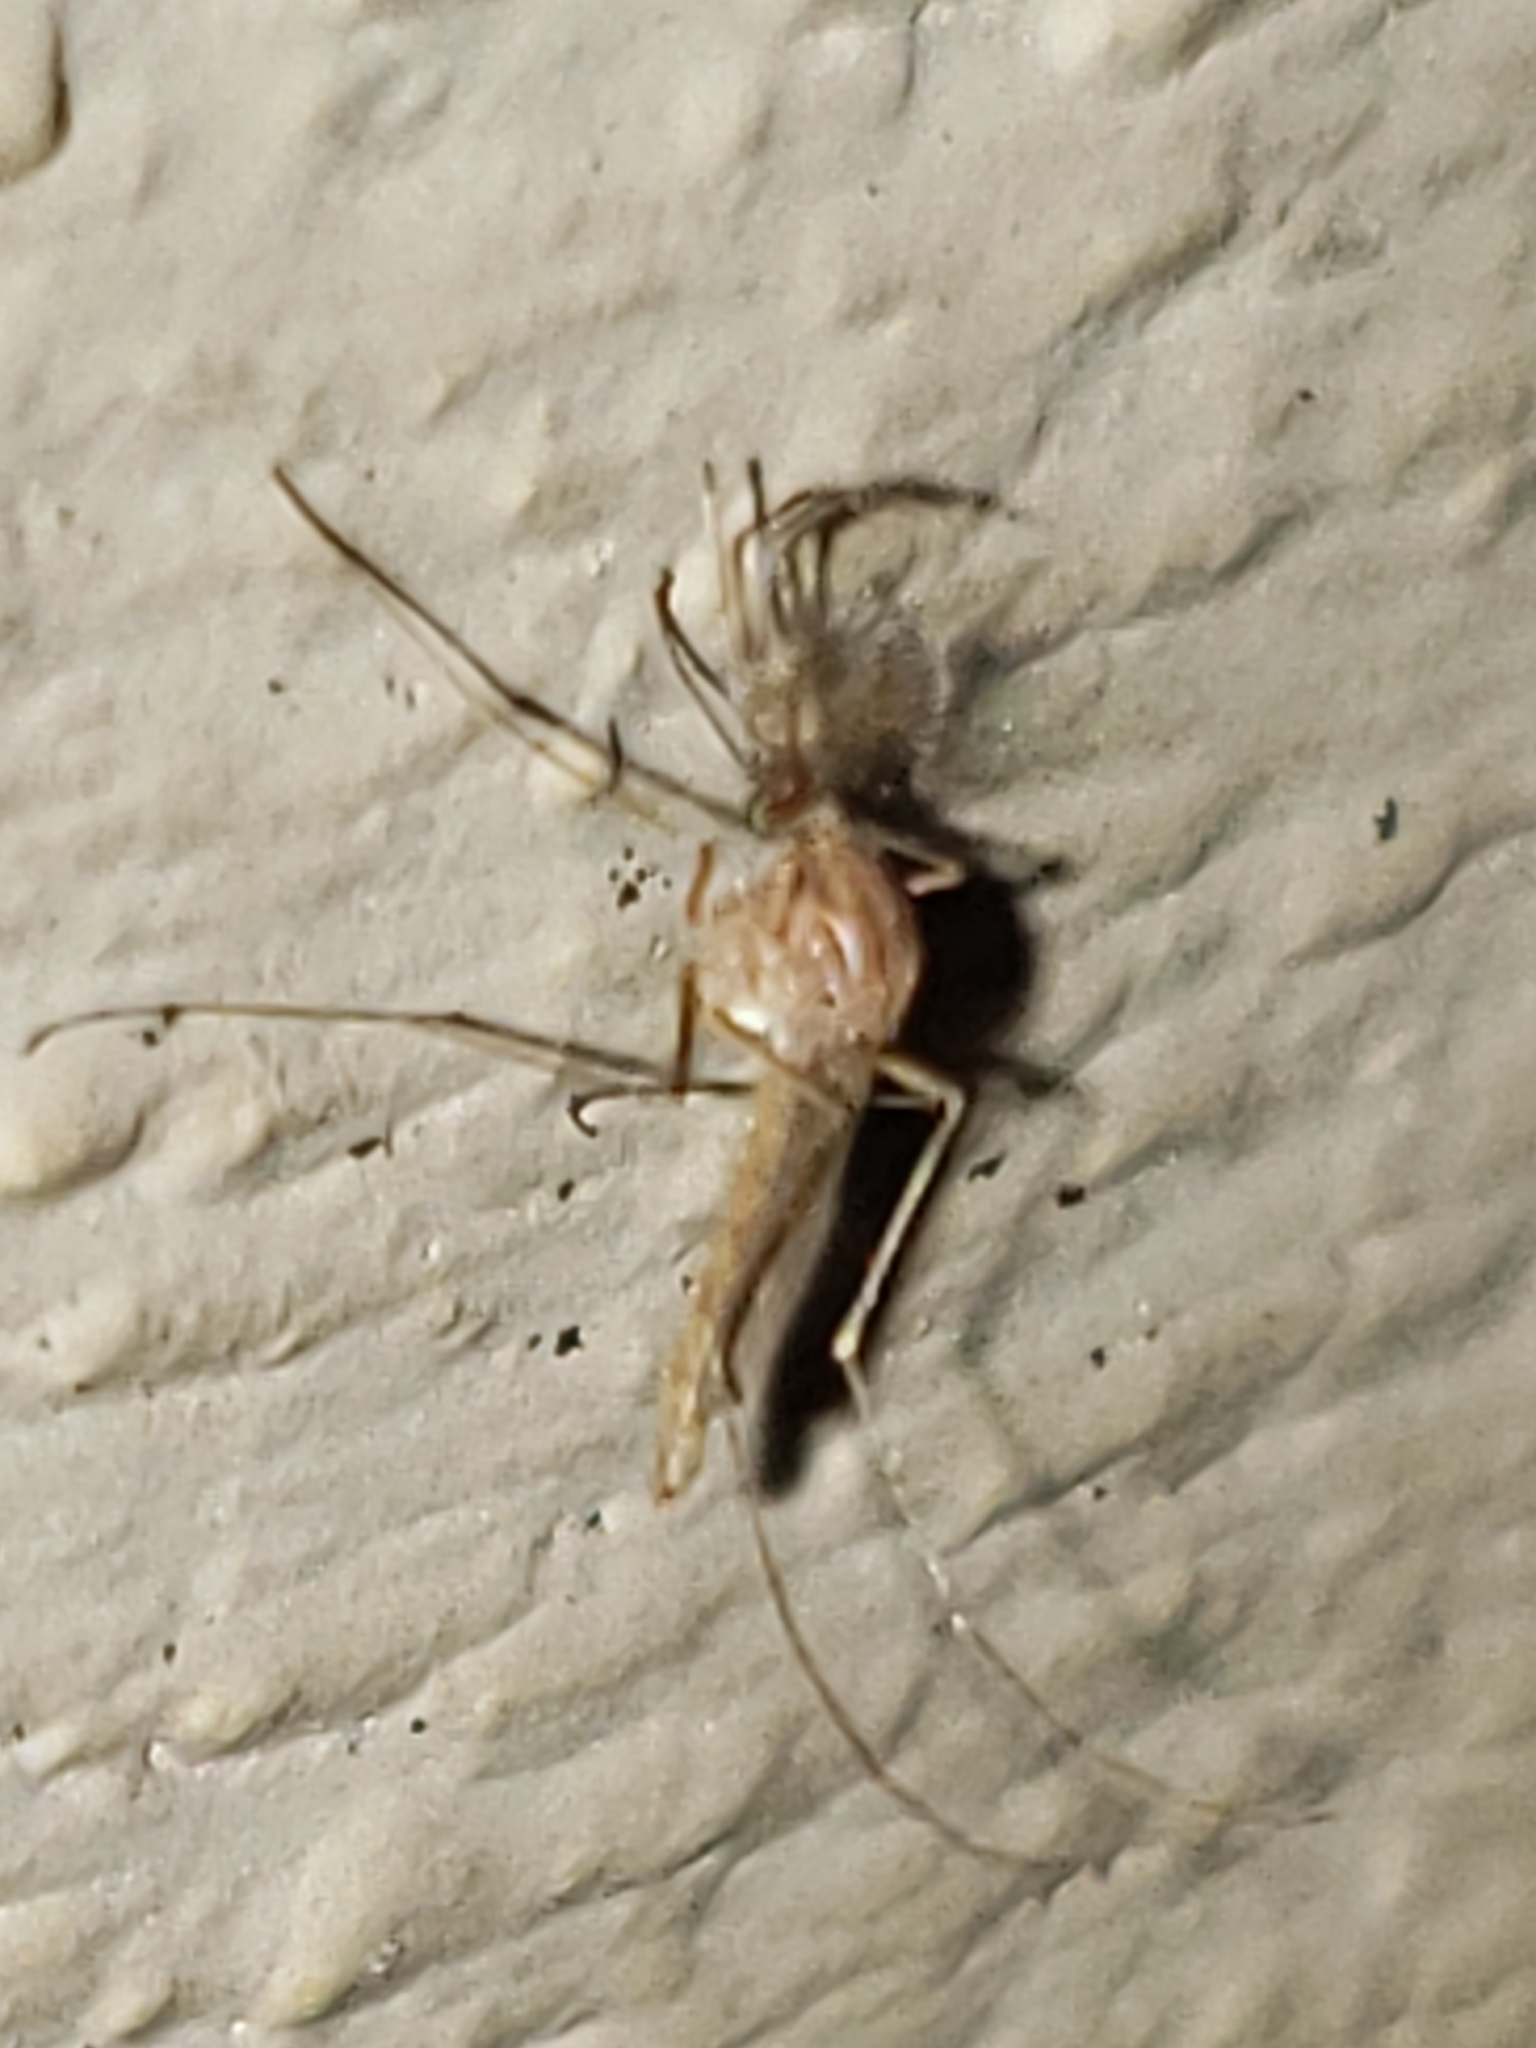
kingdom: Animalia
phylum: Arthropoda
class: Insecta
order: Diptera
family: Culicidae
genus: Aedes
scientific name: Aedes vexans
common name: Inland floodwater mosquito
